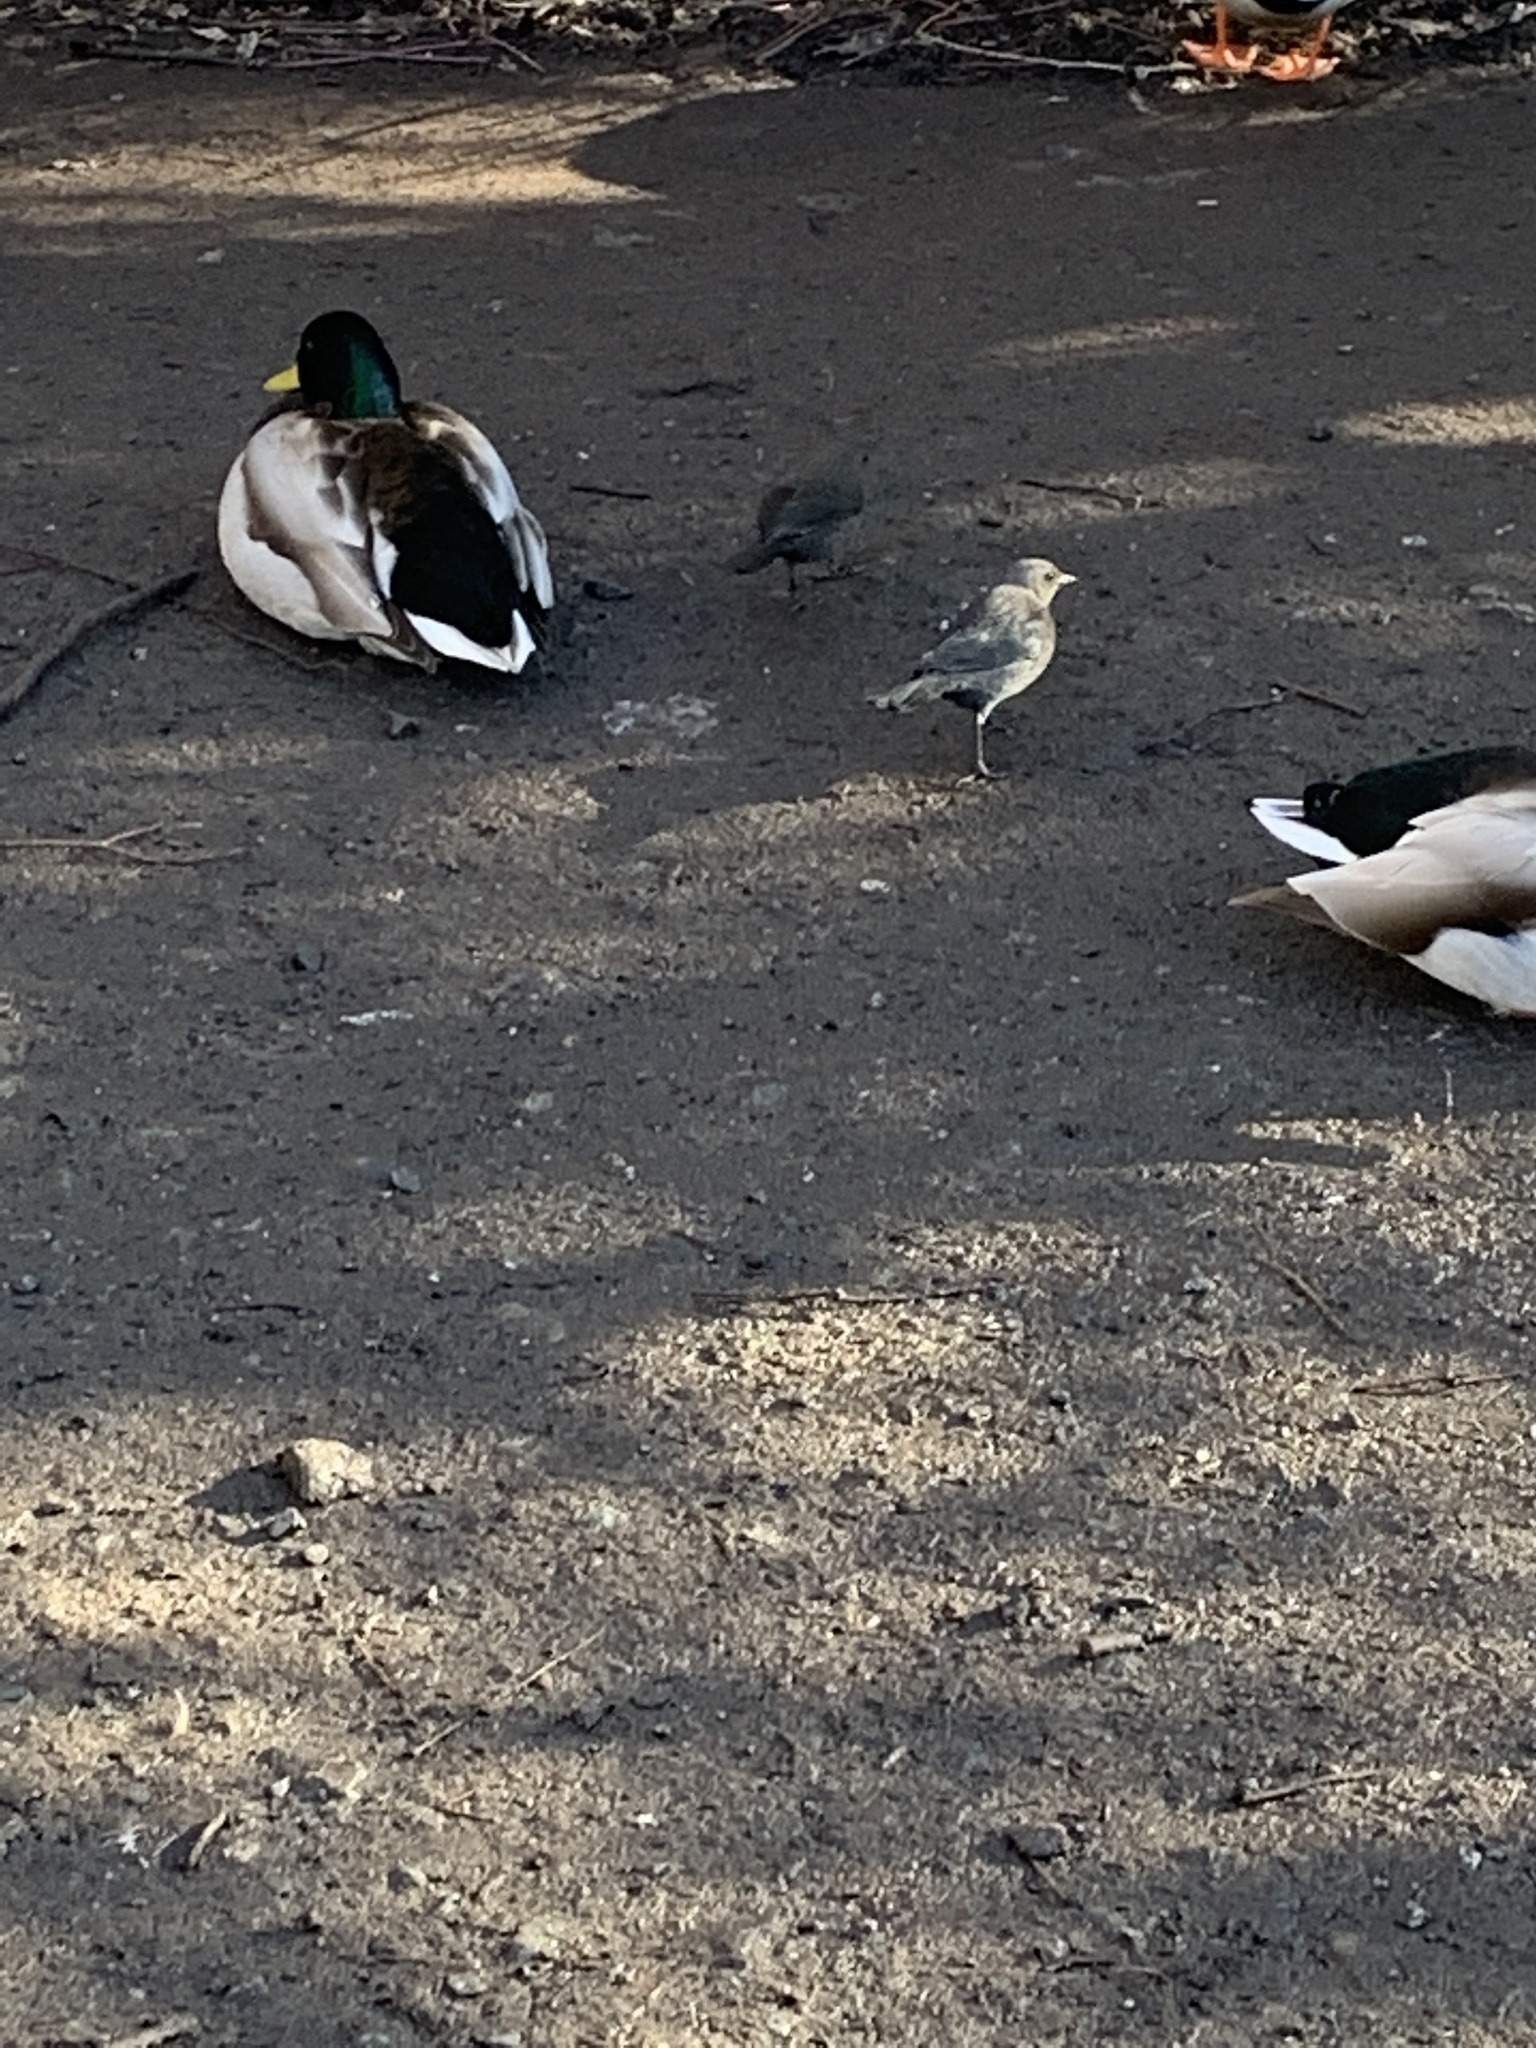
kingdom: Animalia
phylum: Chordata
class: Aves
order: Passeriformes
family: Icteridae
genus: Euphagus
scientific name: Euphagus cyanocephalus
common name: Brewer's blackbird
